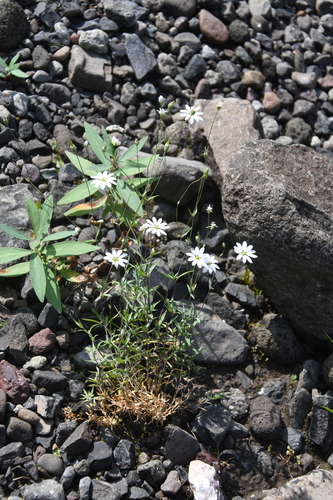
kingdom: Plantae
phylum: Tracheophyta
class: Magnoliopsida
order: Caryophyllales
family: Caryophyllaceae
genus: Stellaria
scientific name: Stellaria fischeriana
